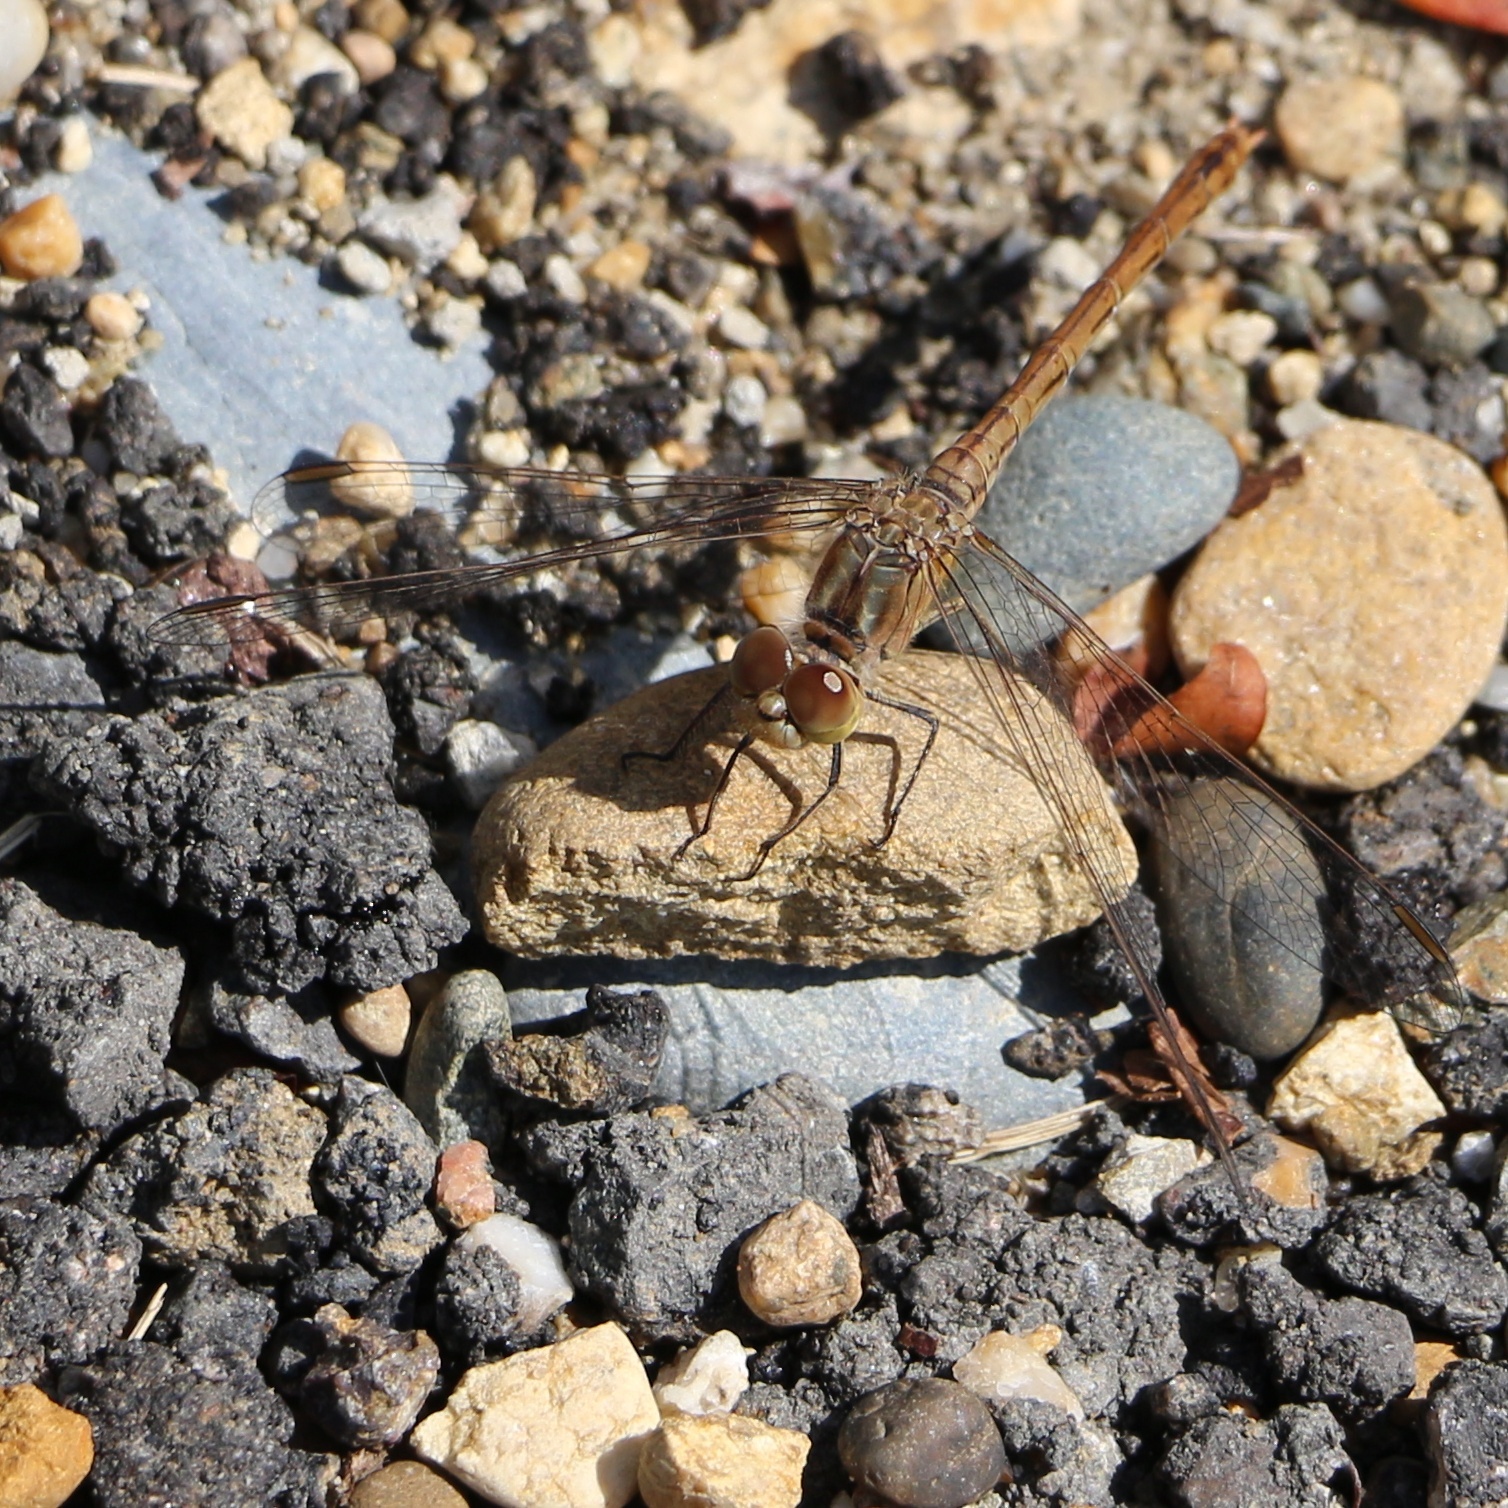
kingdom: Animalia
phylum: Arthropoda
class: Insecta
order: Odonata
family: Libellulidae
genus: Sympetrum
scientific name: Sympetrum meridionale
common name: Southern darter
